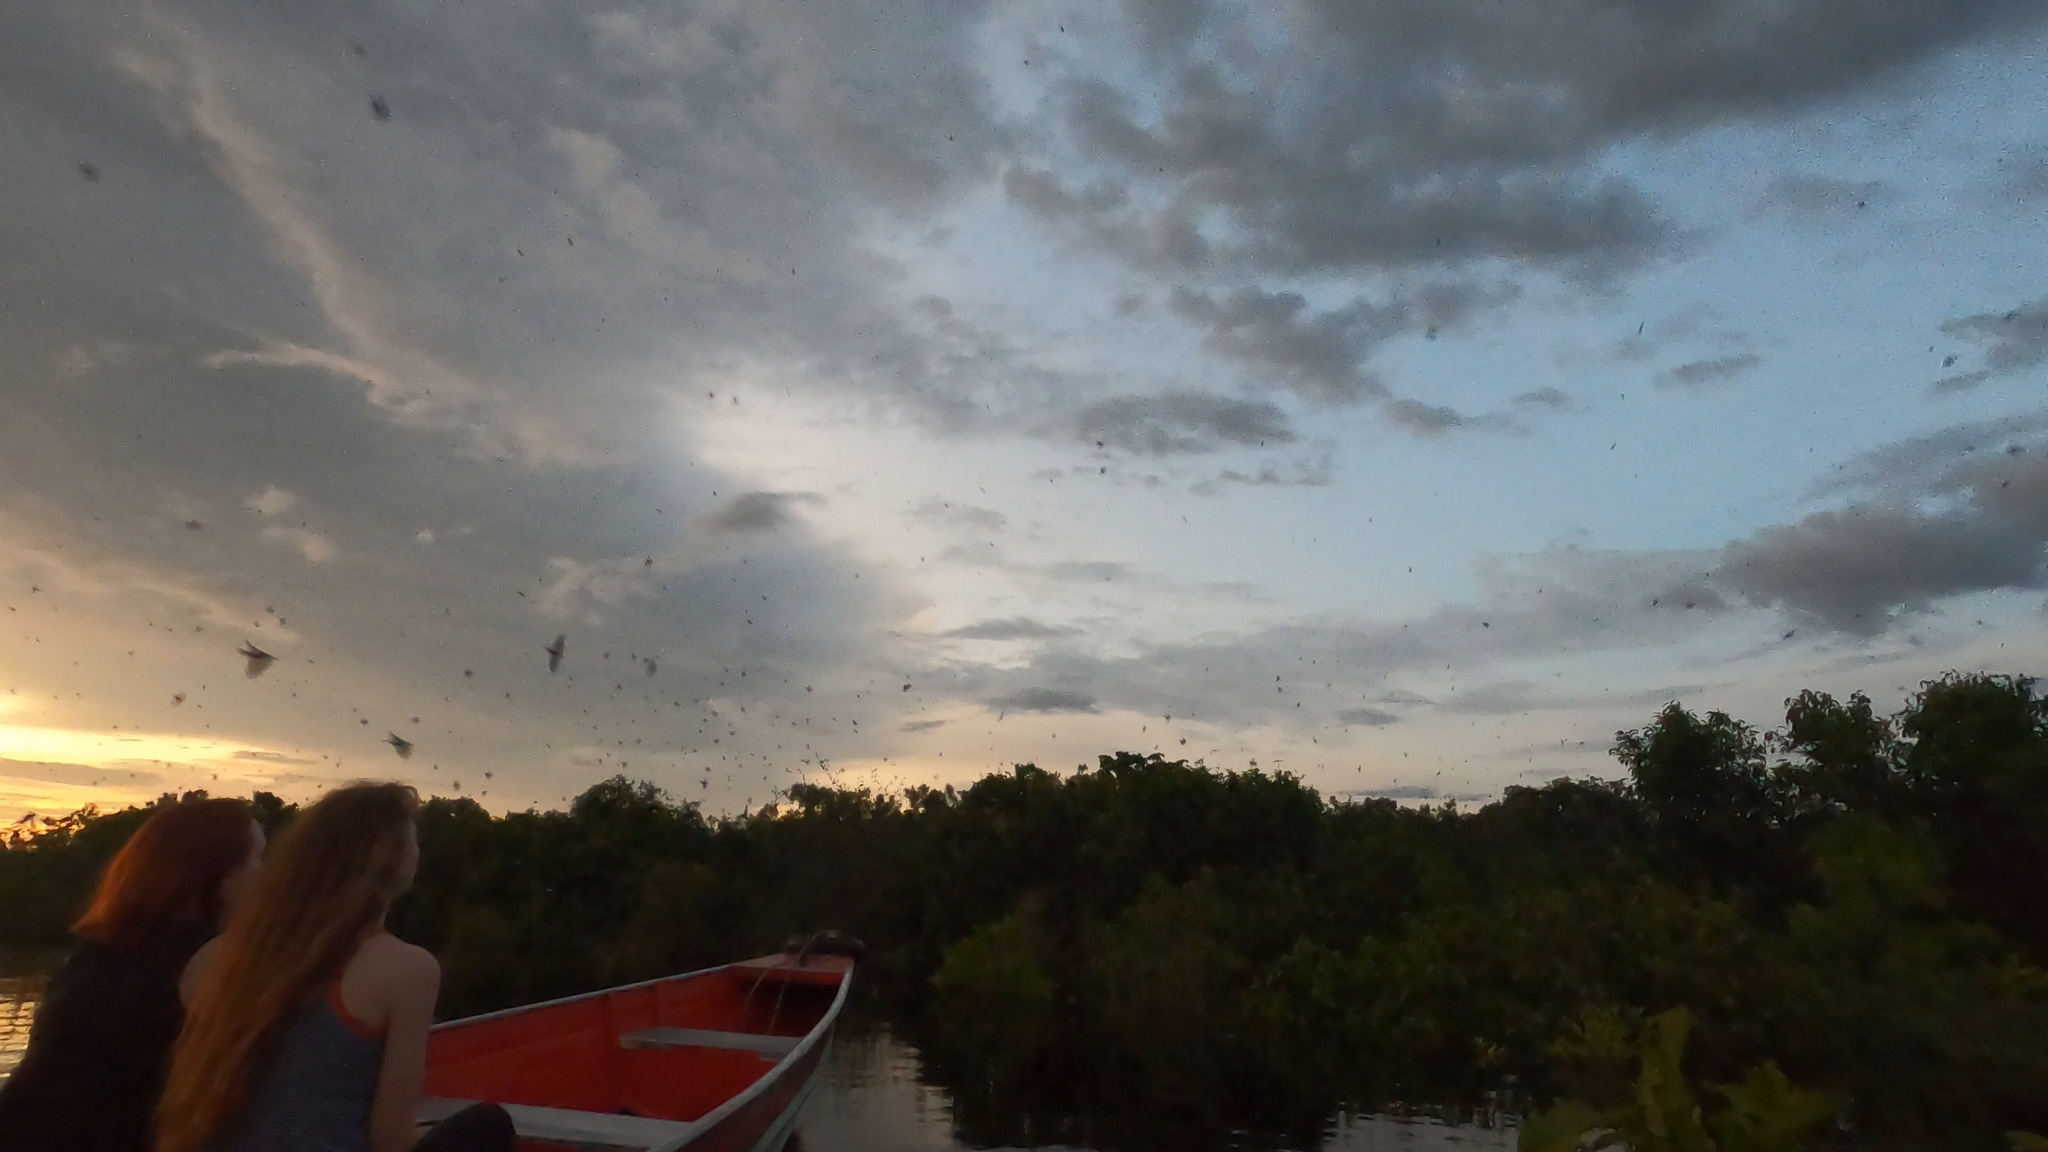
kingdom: Animalia
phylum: Chordata
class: Aves
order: Passeriformes
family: Hirundinidae
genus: Progne
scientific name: Progne subis
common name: Purple martin
